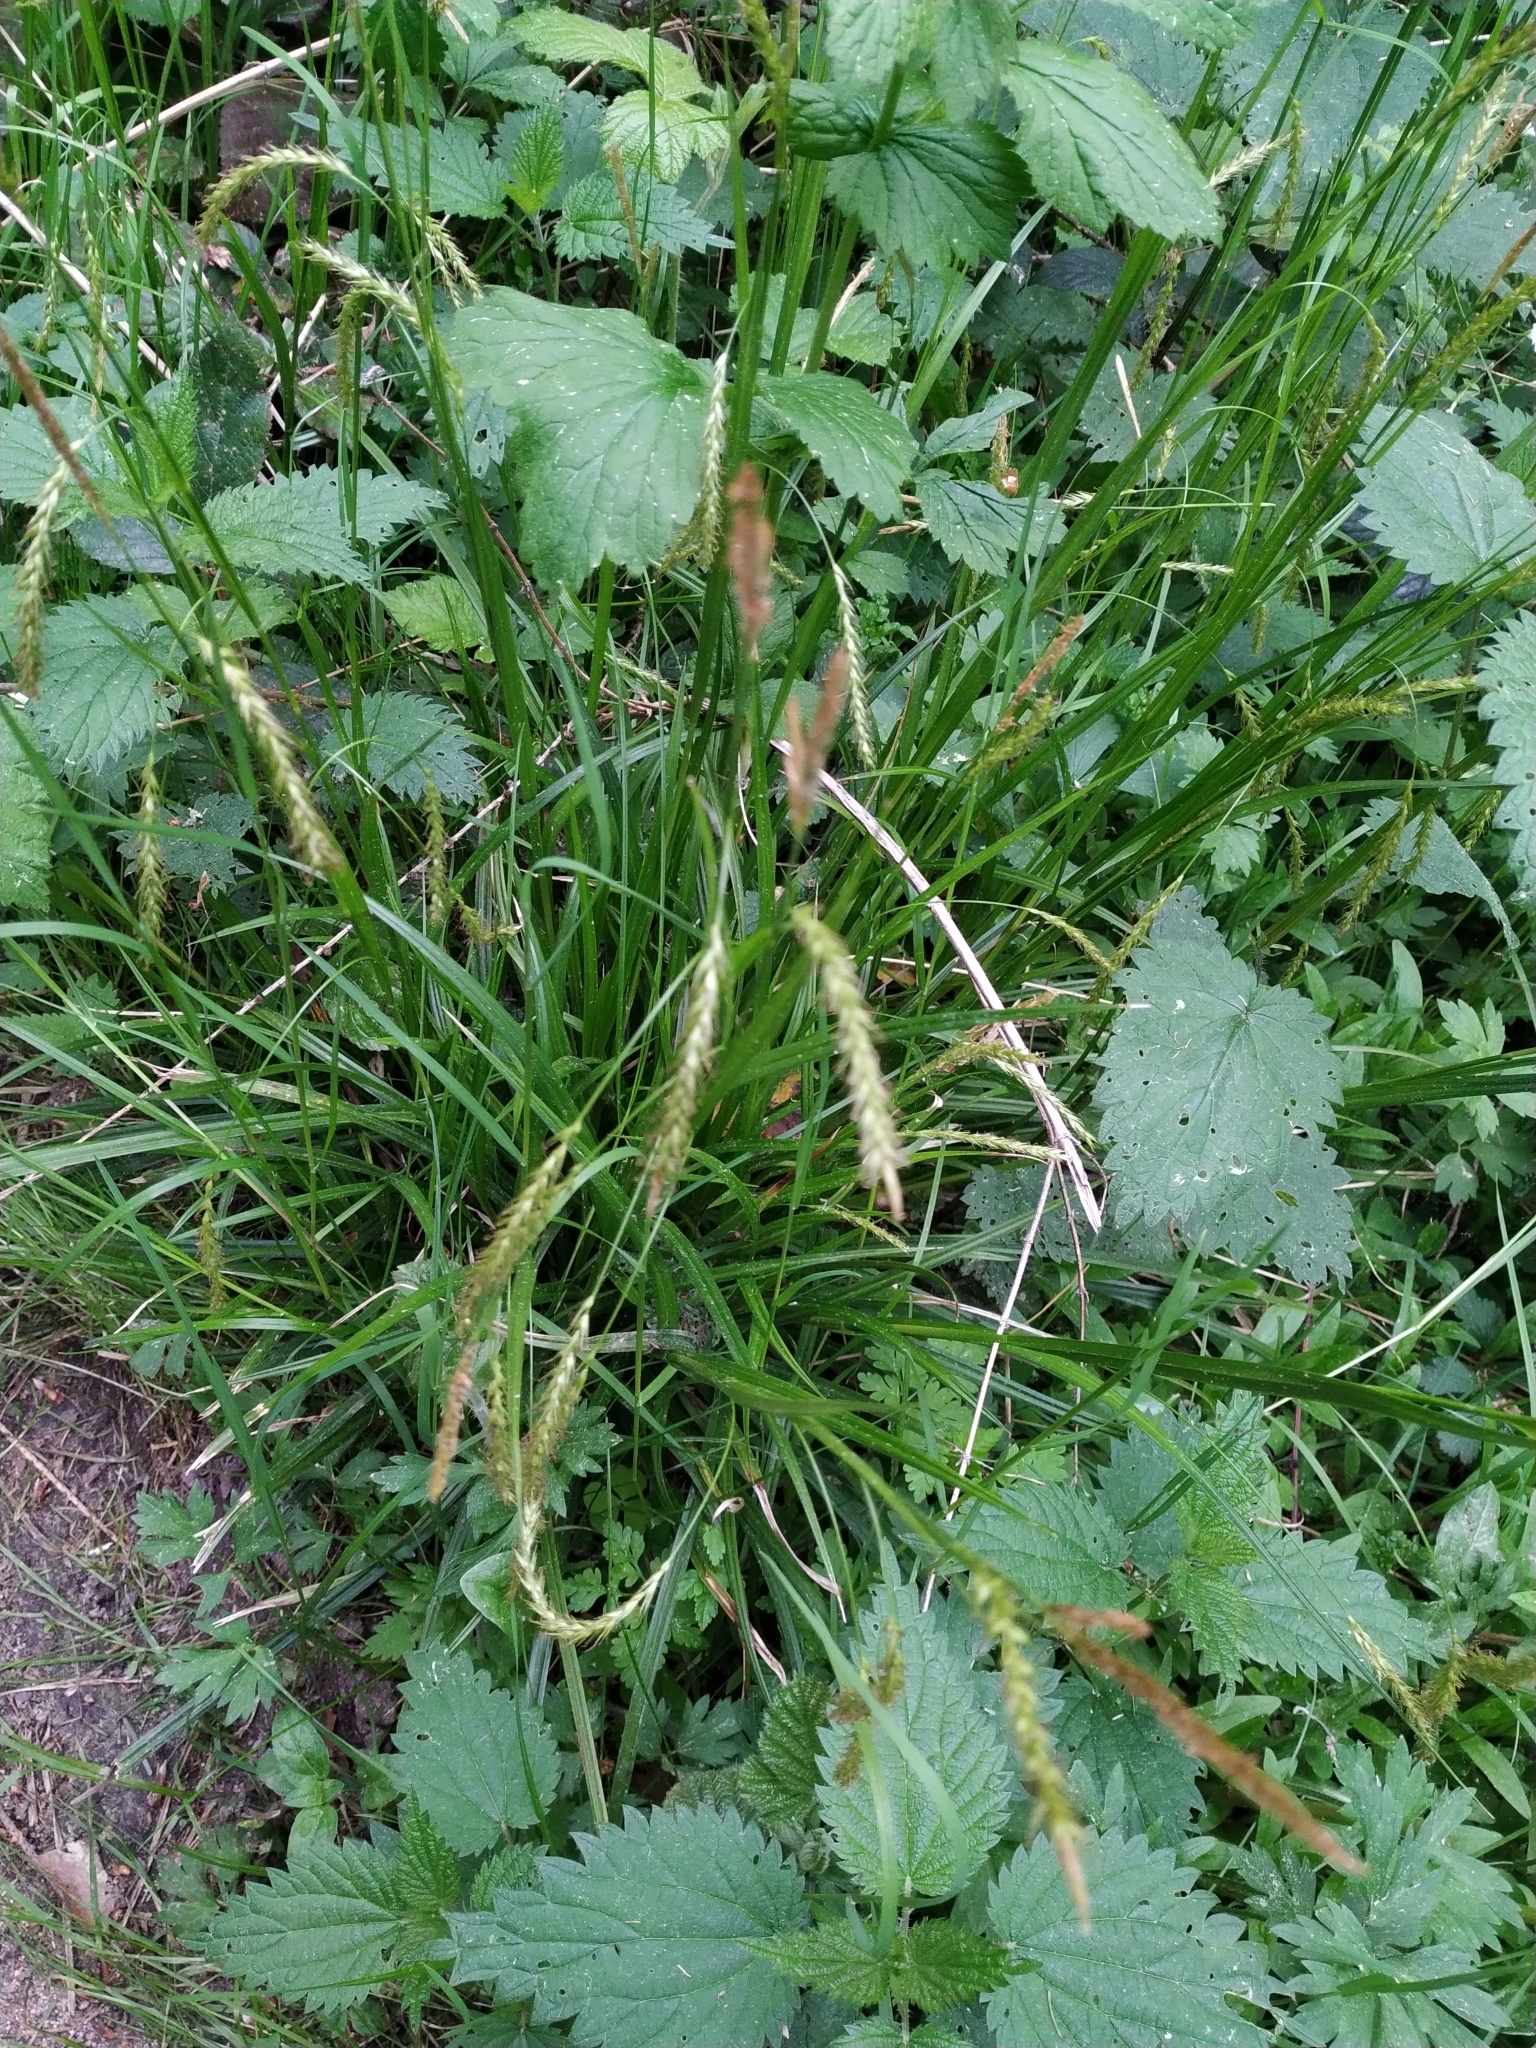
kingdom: Plantae
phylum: Tracheophyta
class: Liliopsida
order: Poales
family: Cyperaceae
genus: Carex
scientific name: Carex sylvatica
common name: Wood-sedge
